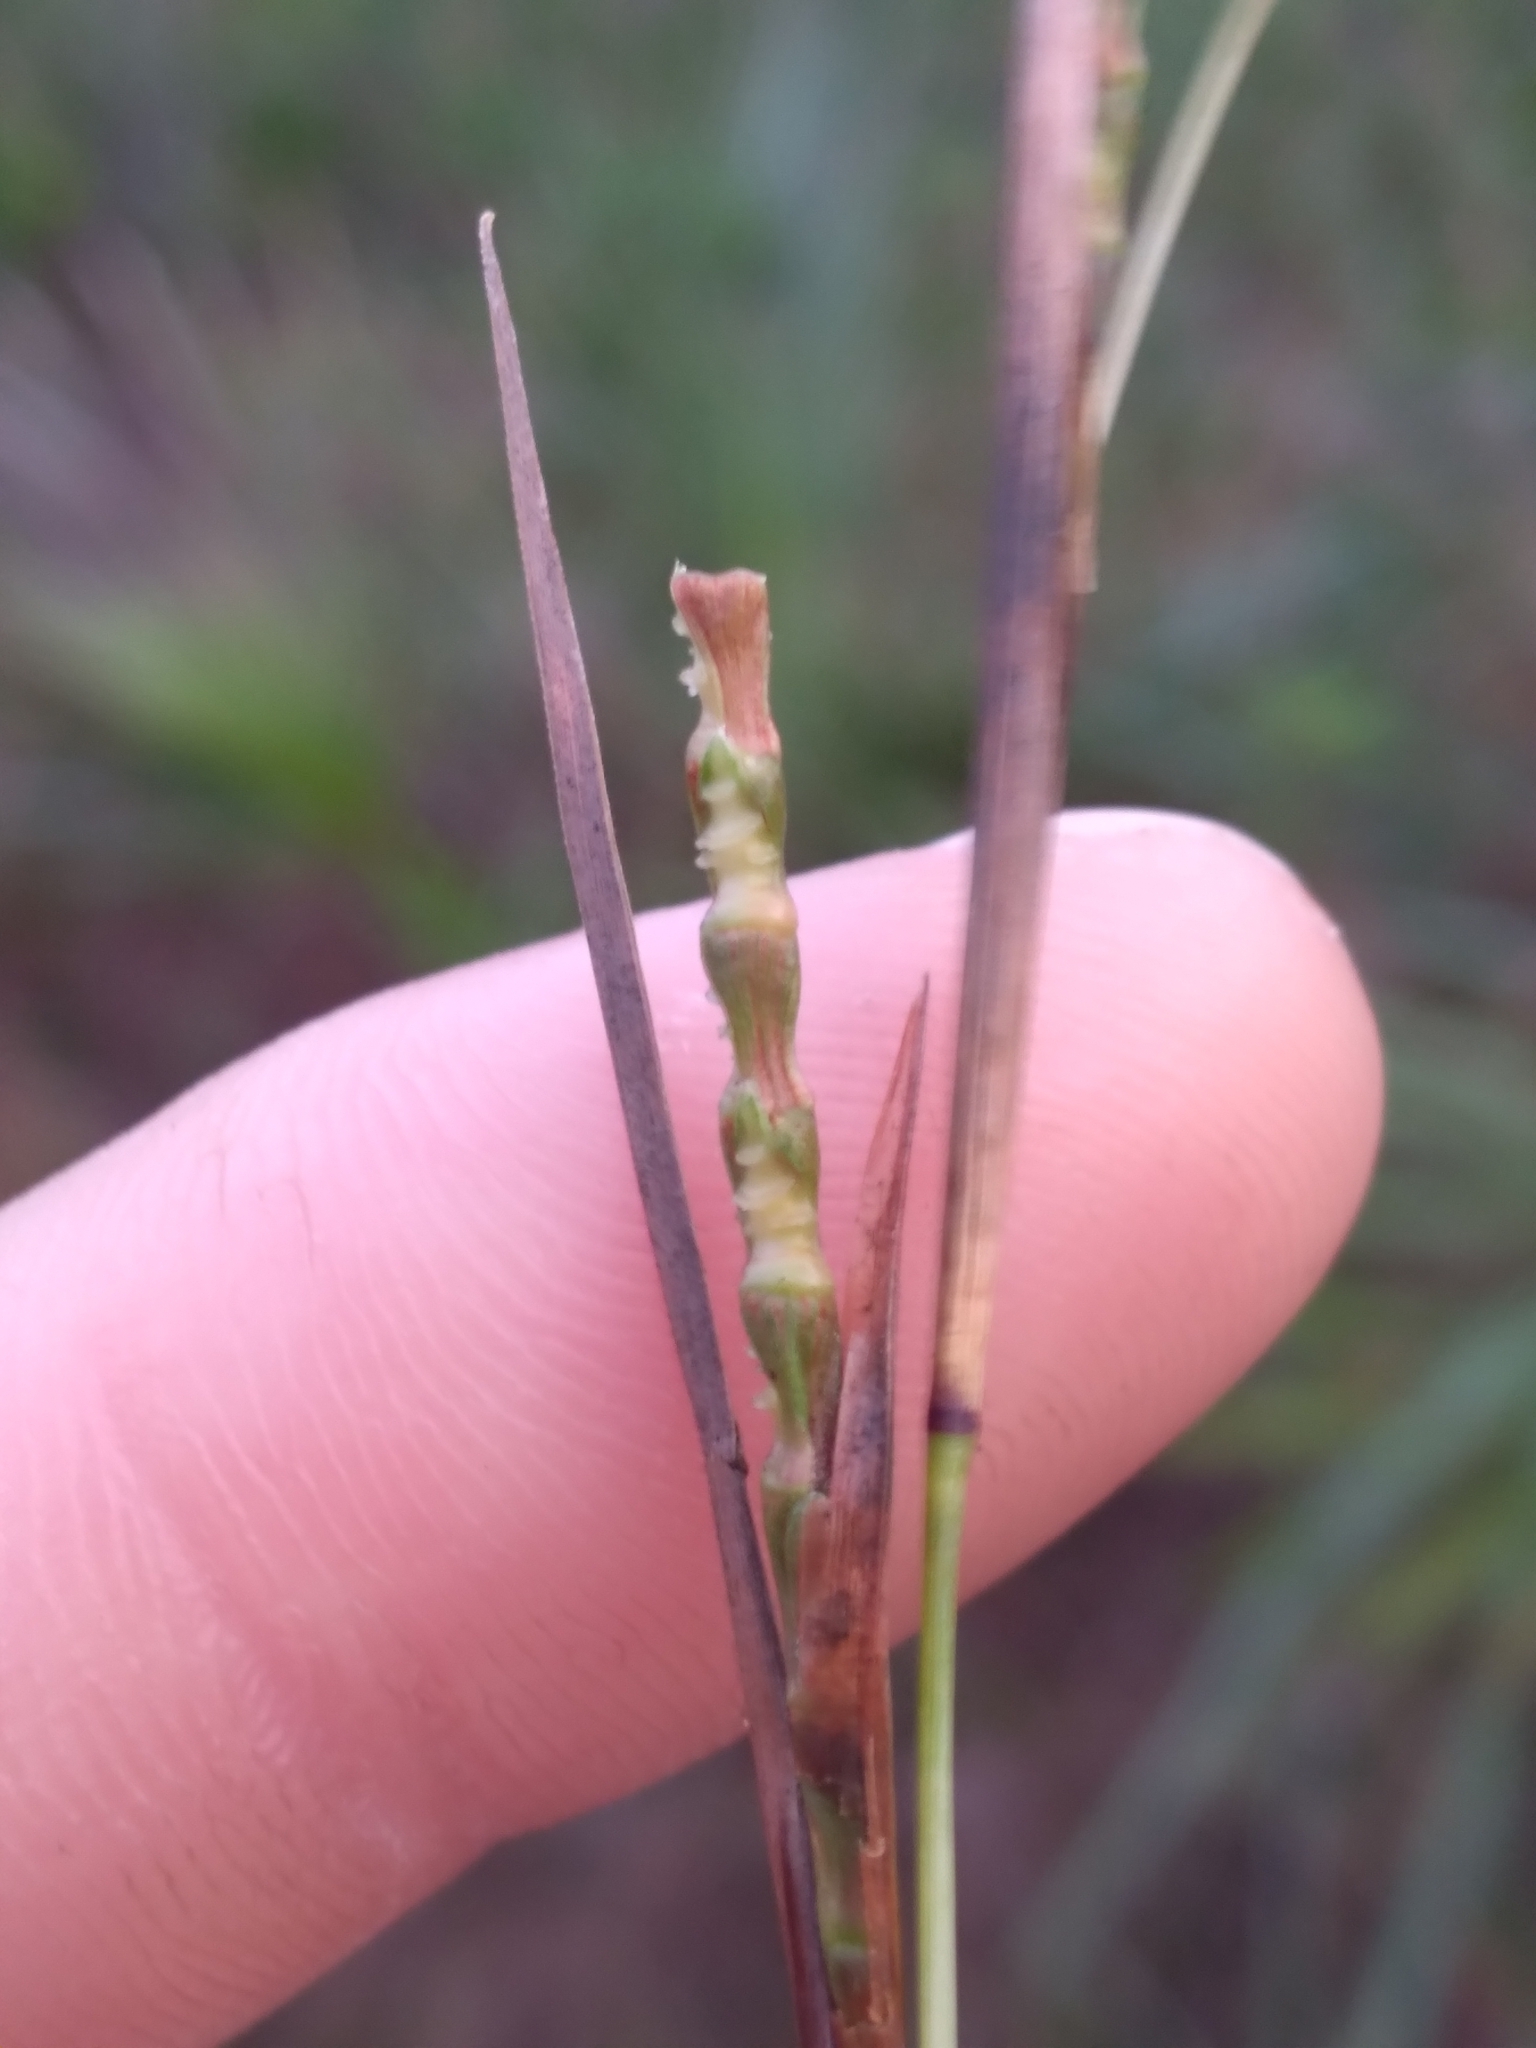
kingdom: Plantae
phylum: Tracheophyta
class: Liliopsida
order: Poales
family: Poaceae
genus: Rottboellia
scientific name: Rottboellia rugosa
